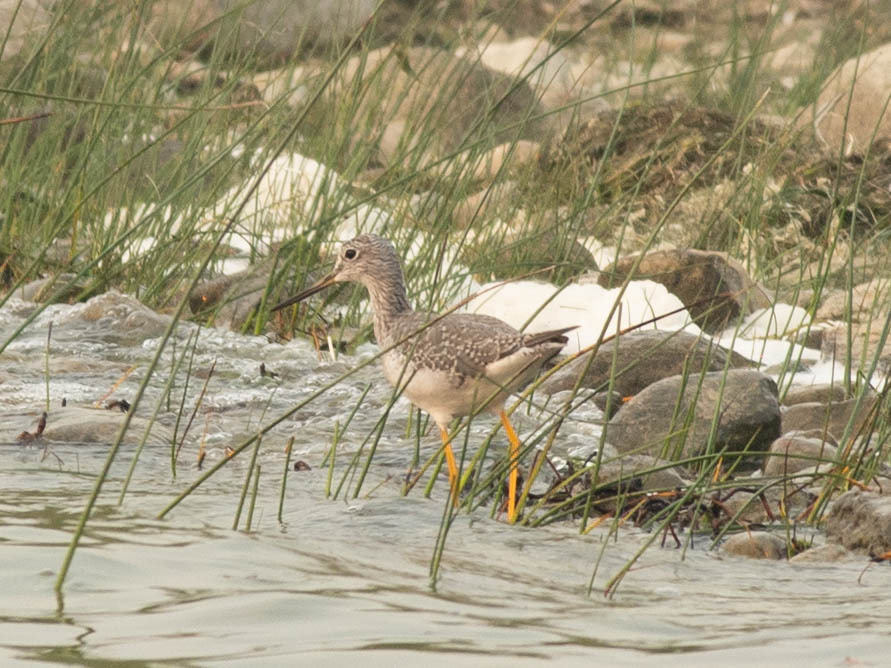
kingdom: Animalia
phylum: Chordata
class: Aves
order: Charadriiformes
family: Scolopacidae
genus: Tringa
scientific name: Tringa melanoleuca
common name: Greater yellowlegs
